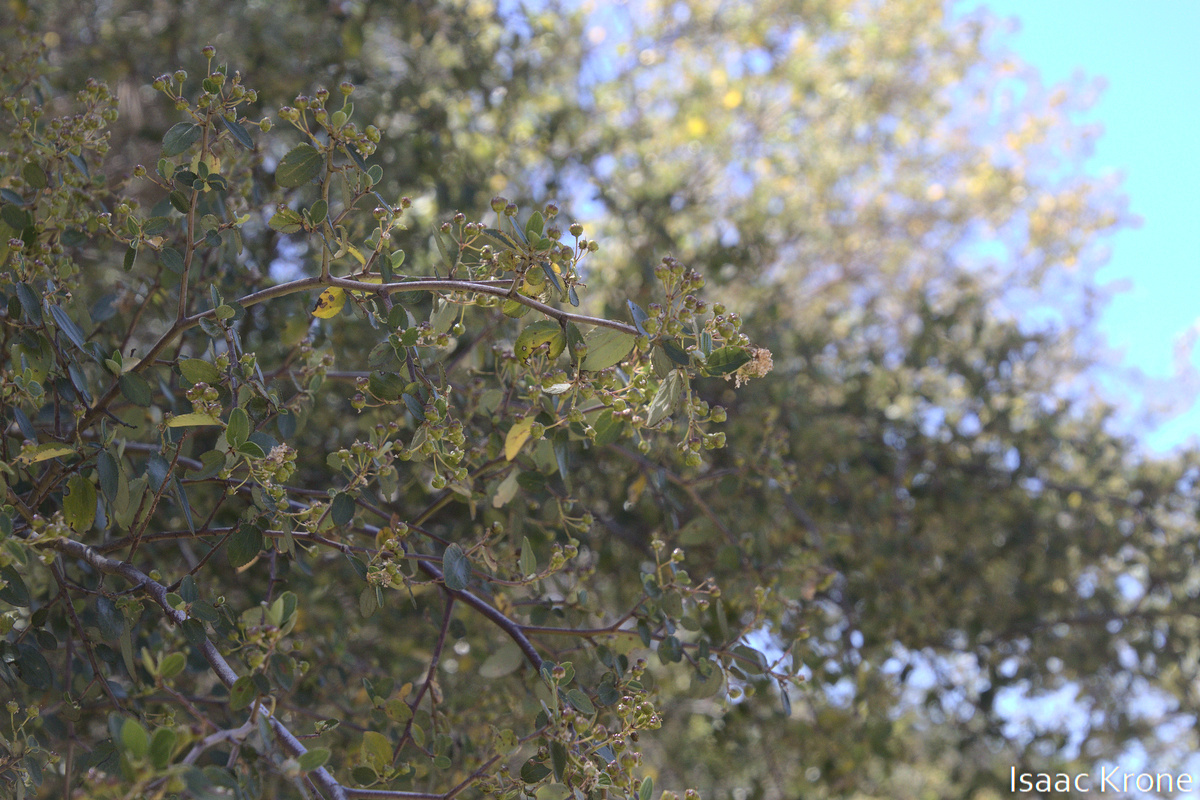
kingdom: Plantae
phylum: Tracheophyta
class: Magnoliopsida
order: Rosales
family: Rhamnaceae
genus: Ceanothus
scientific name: Ceanothus cuneatus
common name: Cuneate ceanothus
